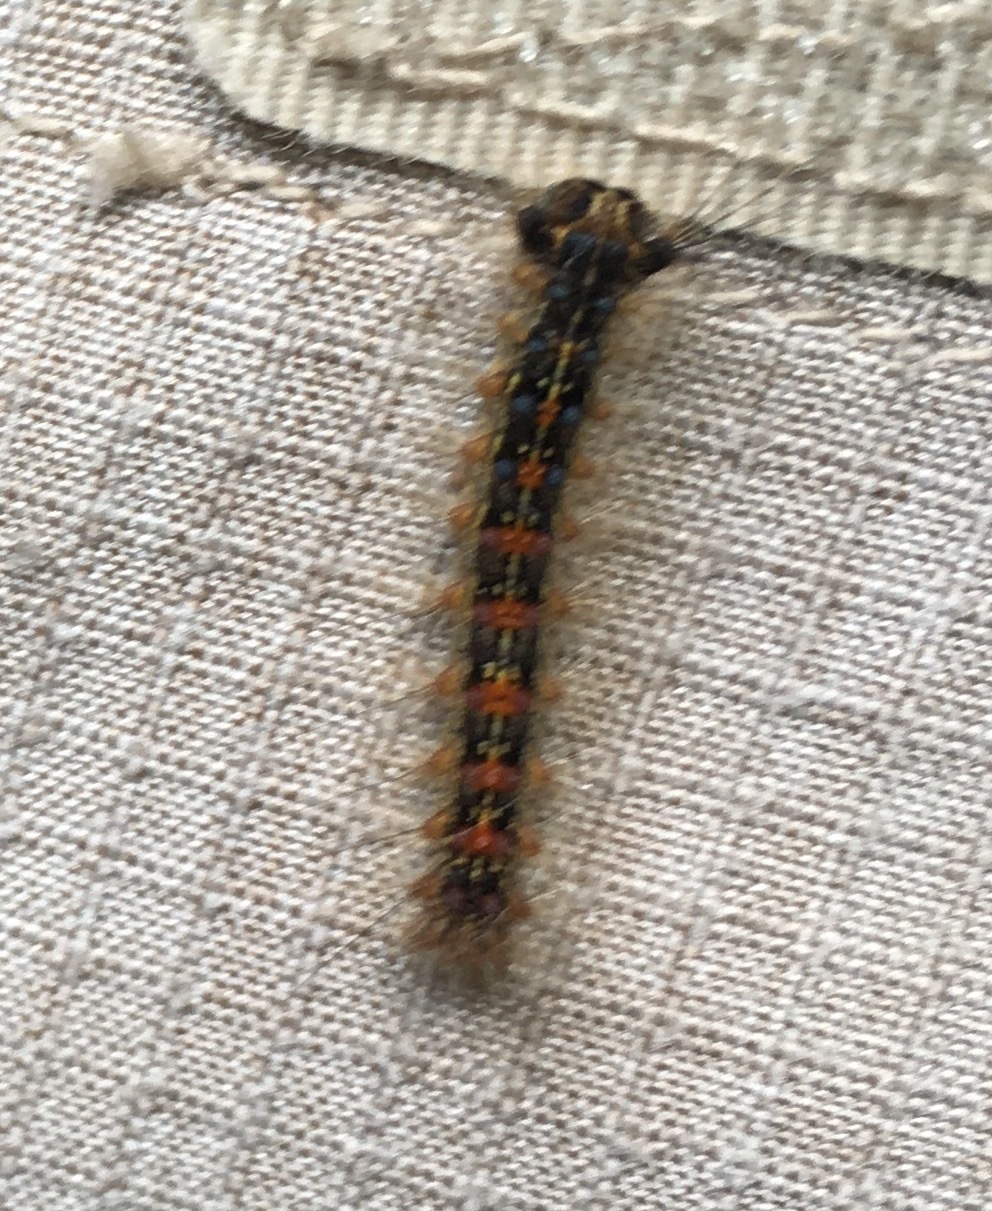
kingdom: Animalia
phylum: Arthropoda
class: Insecta
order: Lepidoptera
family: Erebidae
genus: Lymantria
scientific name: Lymantria dispar
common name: Gypsy moth
